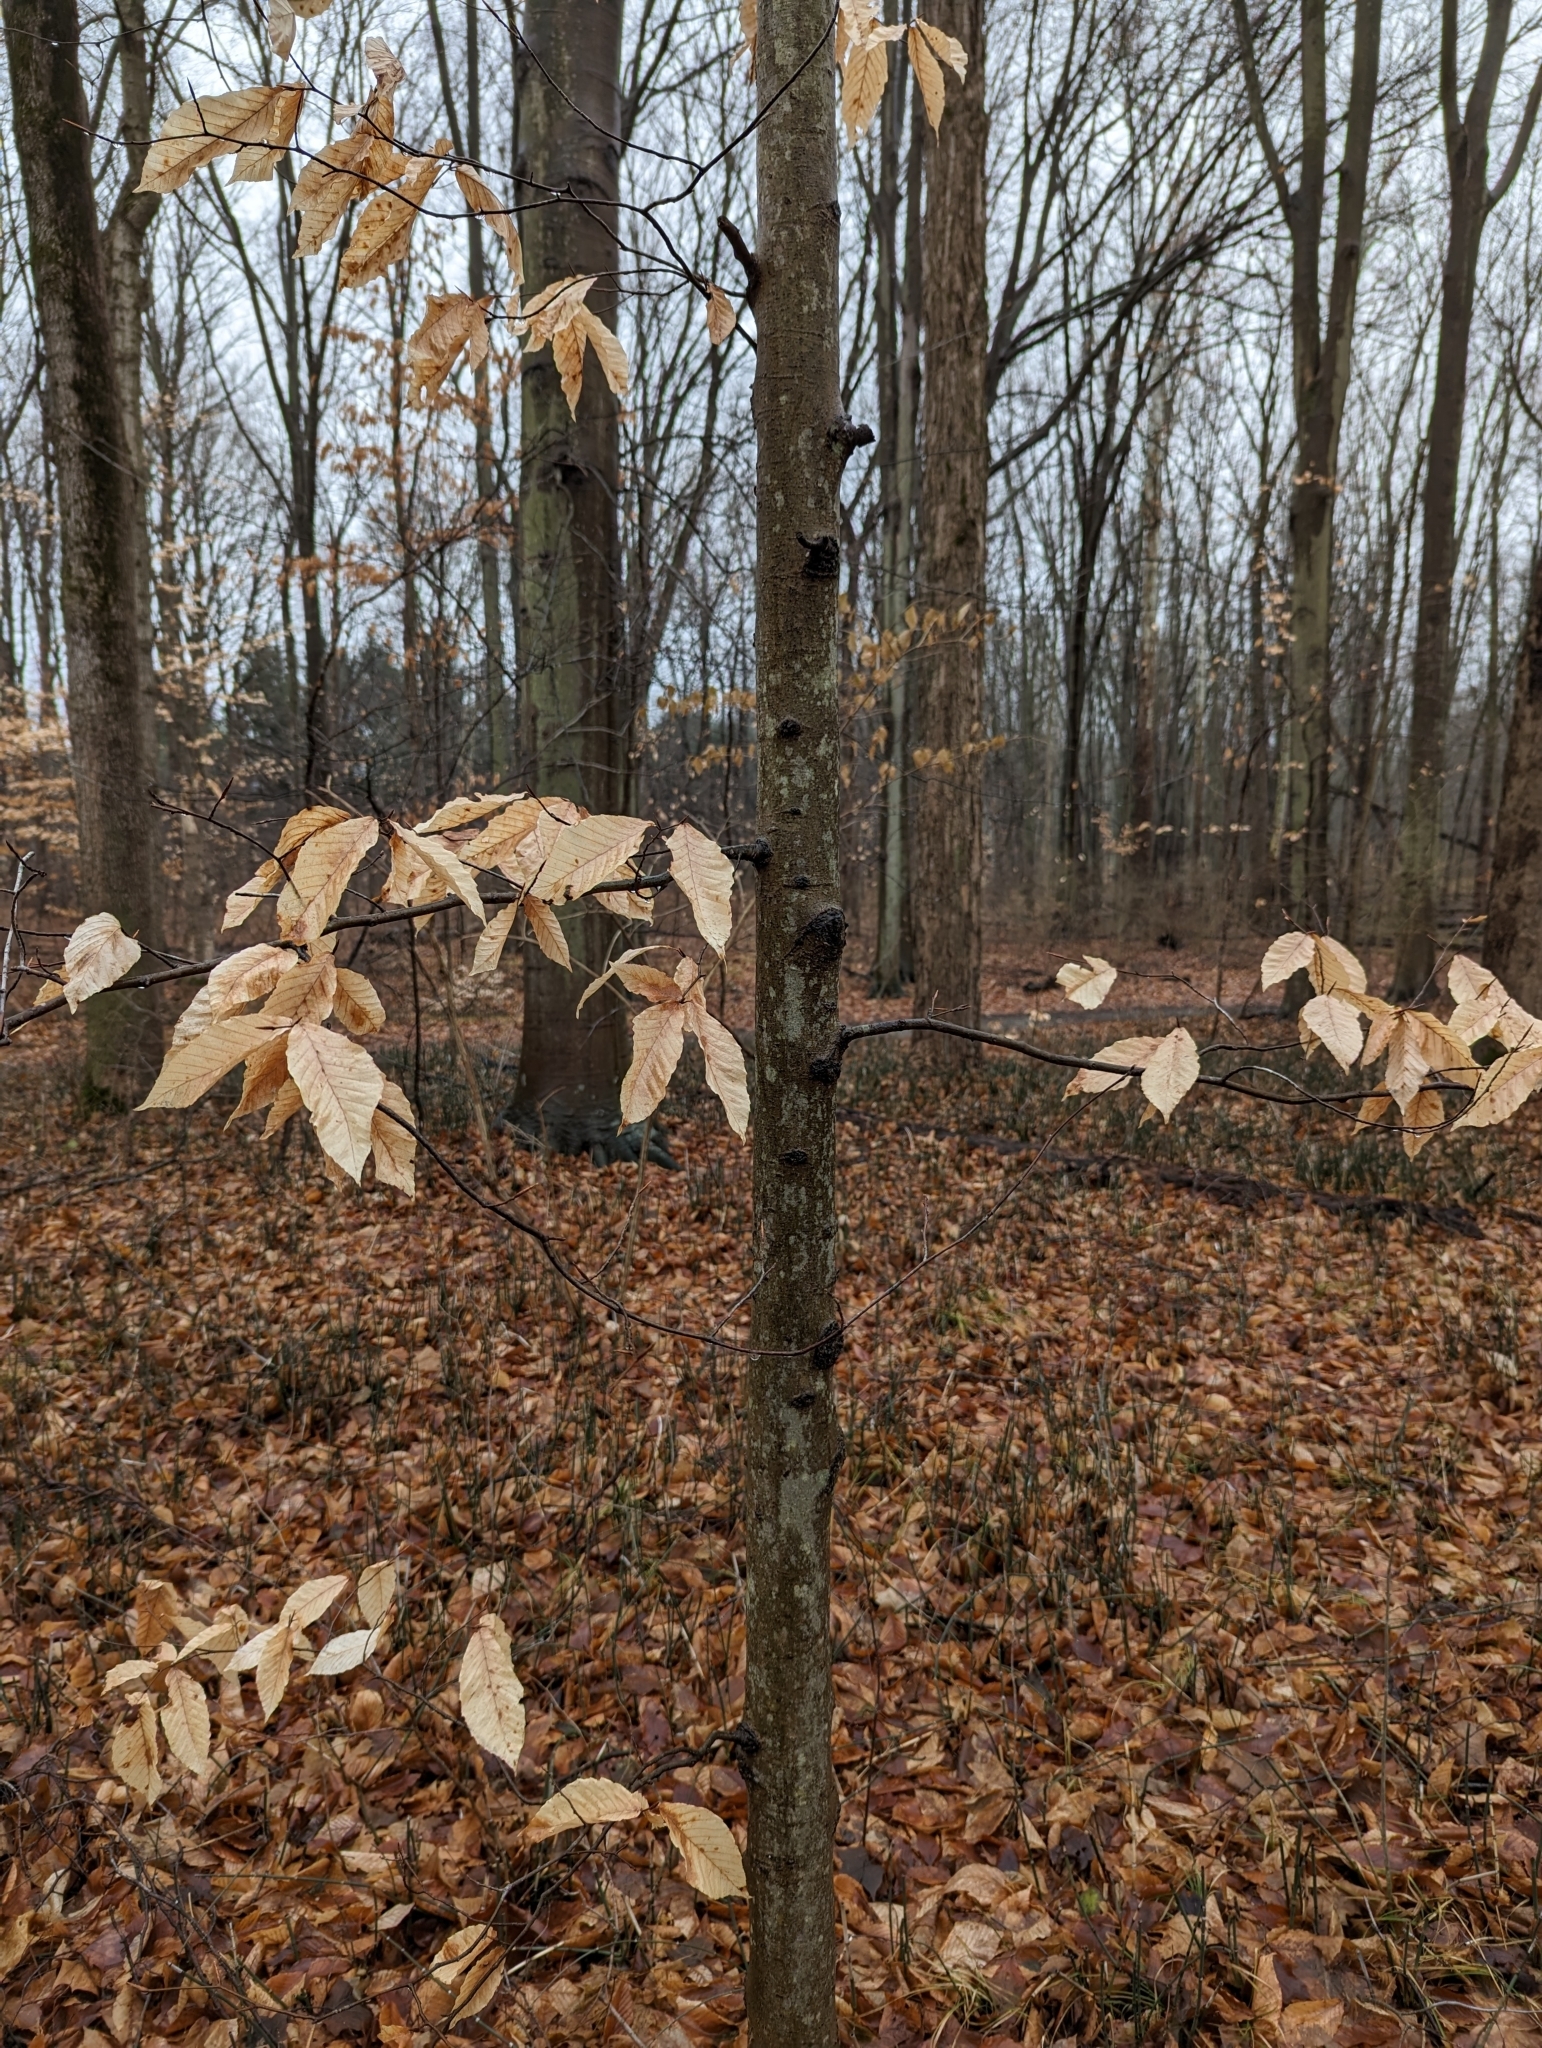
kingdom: Plantae
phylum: Tracheophyta
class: Magnoliopsida
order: Fagales
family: Fagaceae
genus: Fagus
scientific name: Fagus grandifolia
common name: American beech
